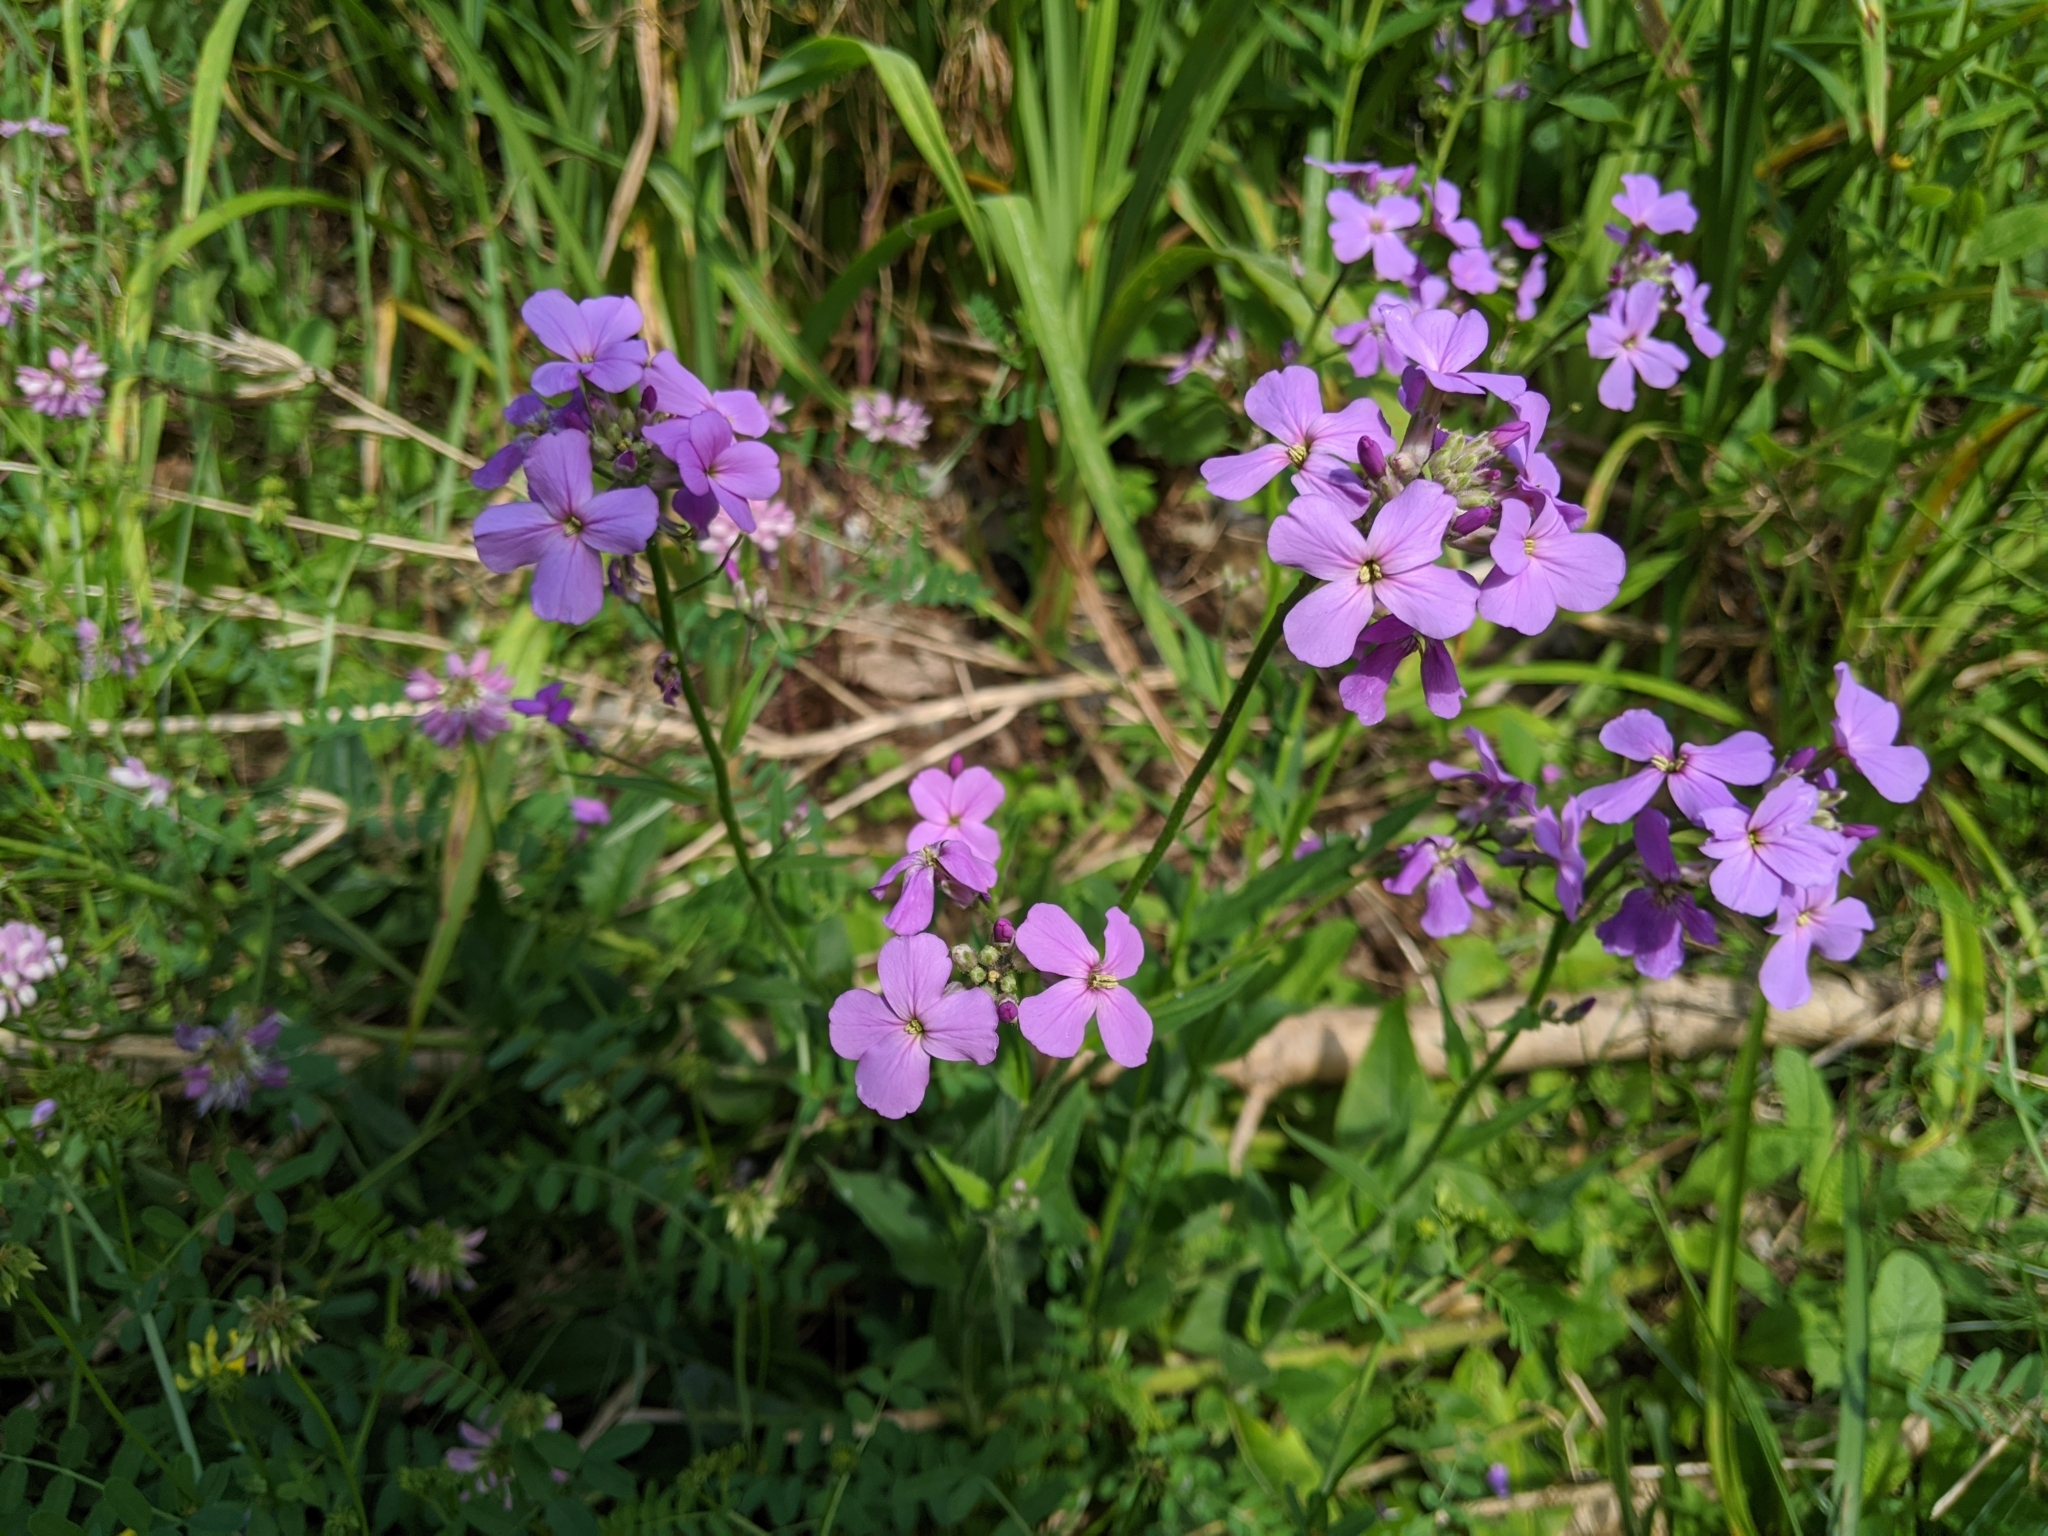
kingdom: Plantae
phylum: Tracheophyta
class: Magnoliopsida
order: Brassicales
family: Brassicaceae
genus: Hesperis
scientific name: Hesperis matronalis
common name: Dame's-violet
